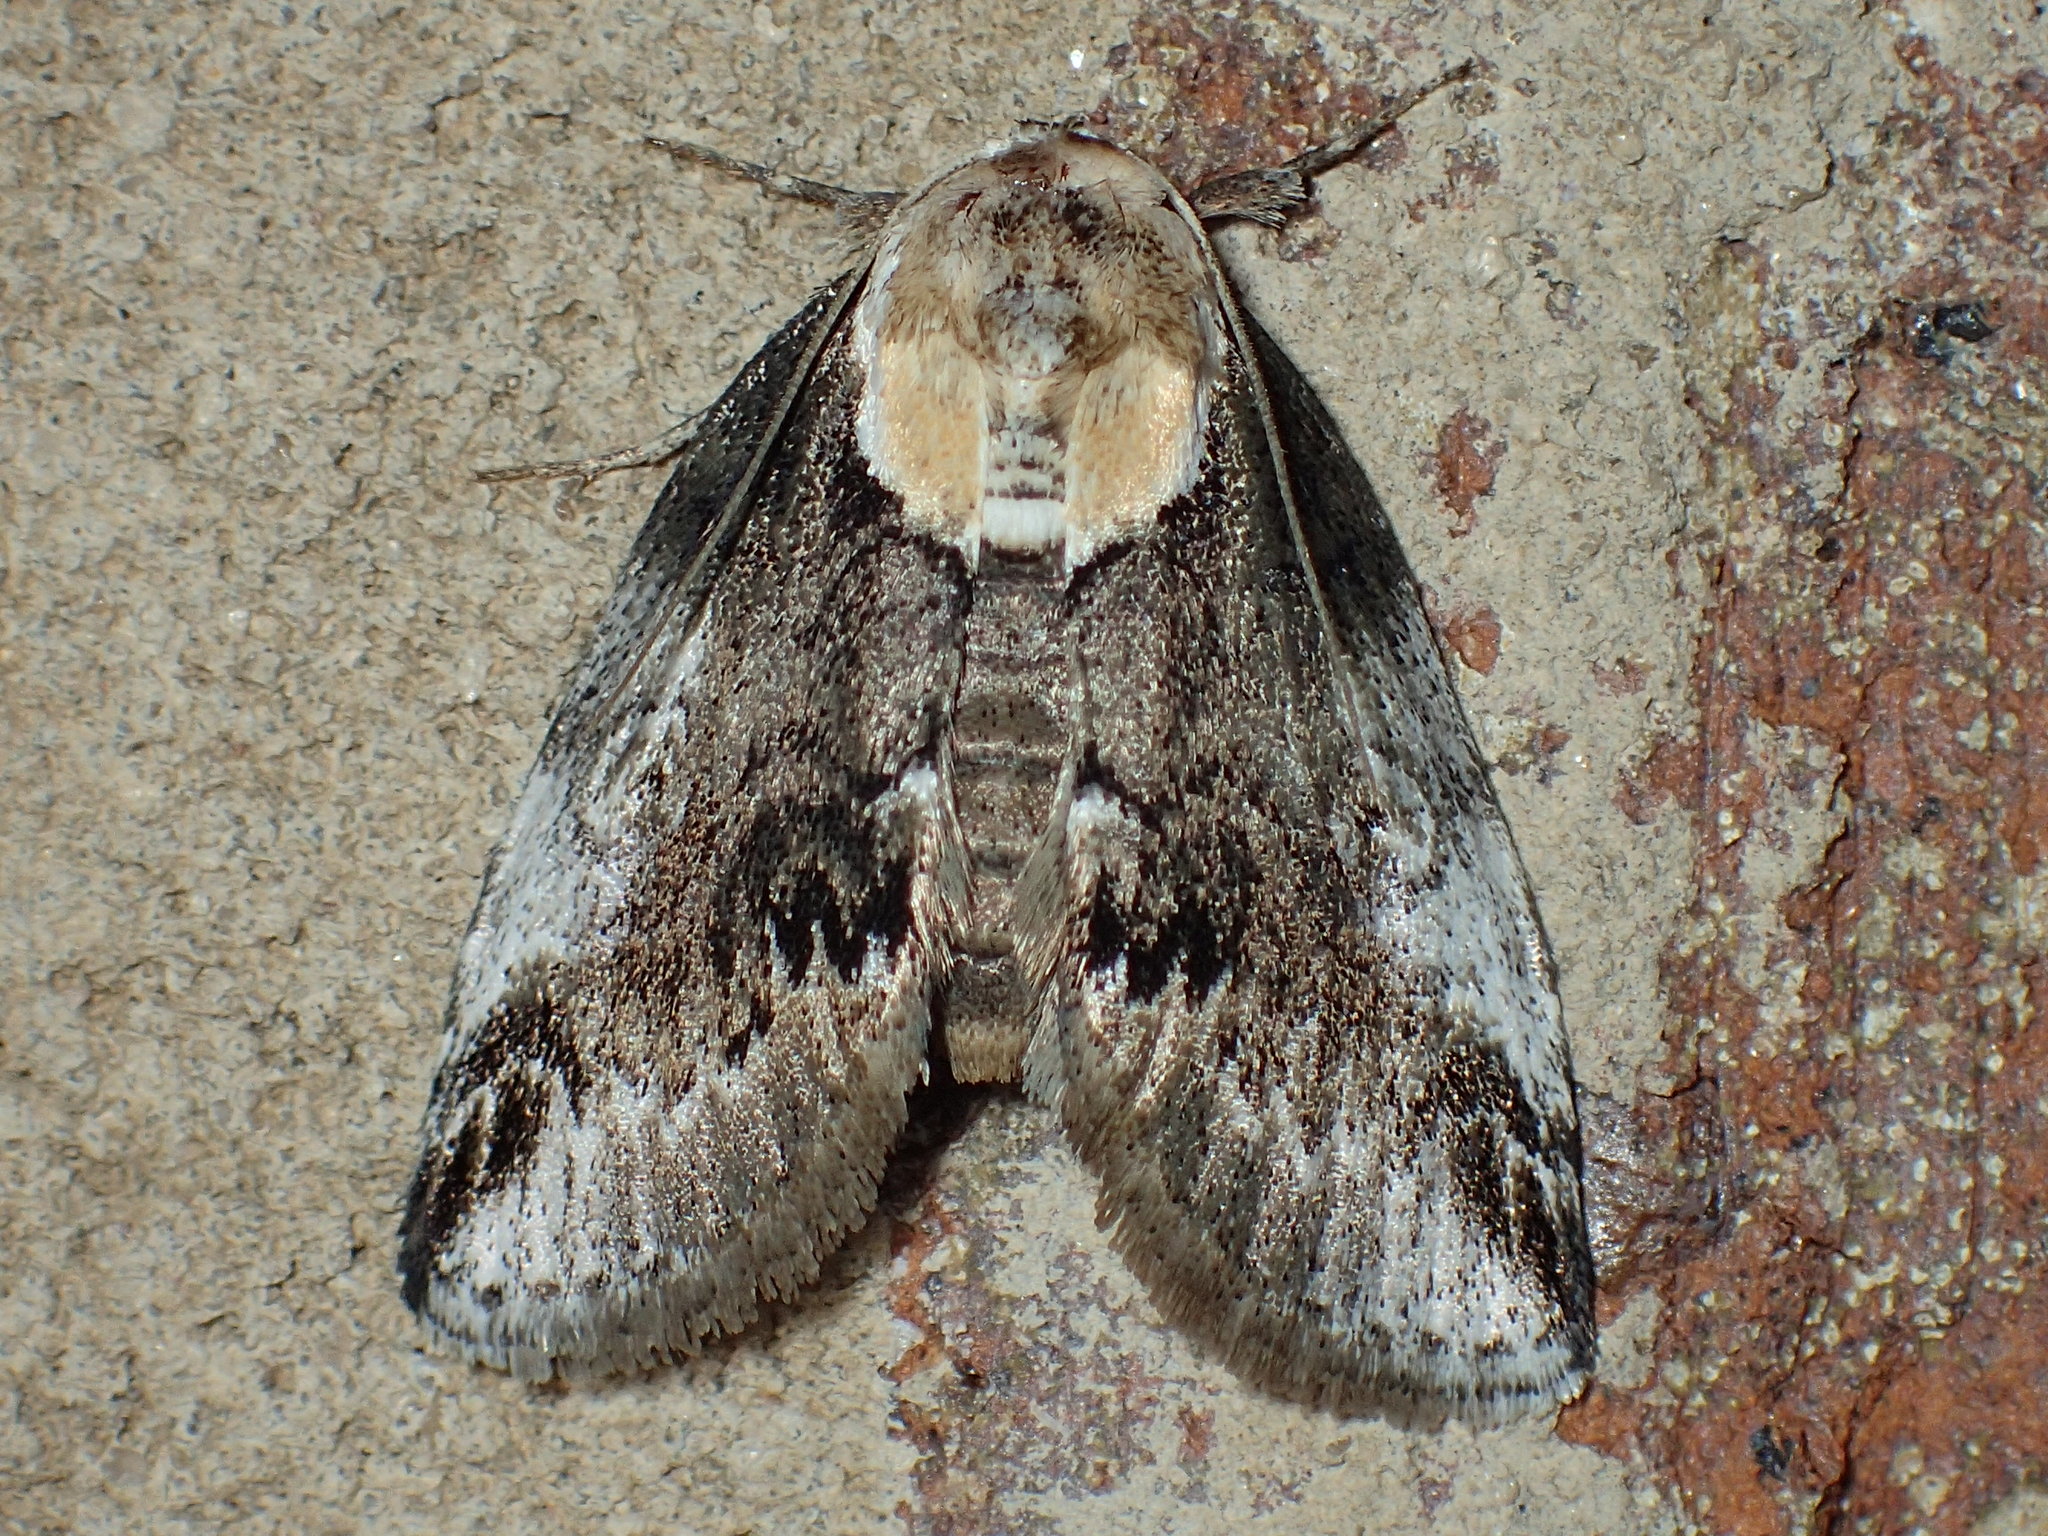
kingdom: Animalia
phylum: Arthropoda
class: Insecta
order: Lepidoptera
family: Nolidae
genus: Baileya
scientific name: Baileya ophthalmica
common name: Eyed baileya moth
